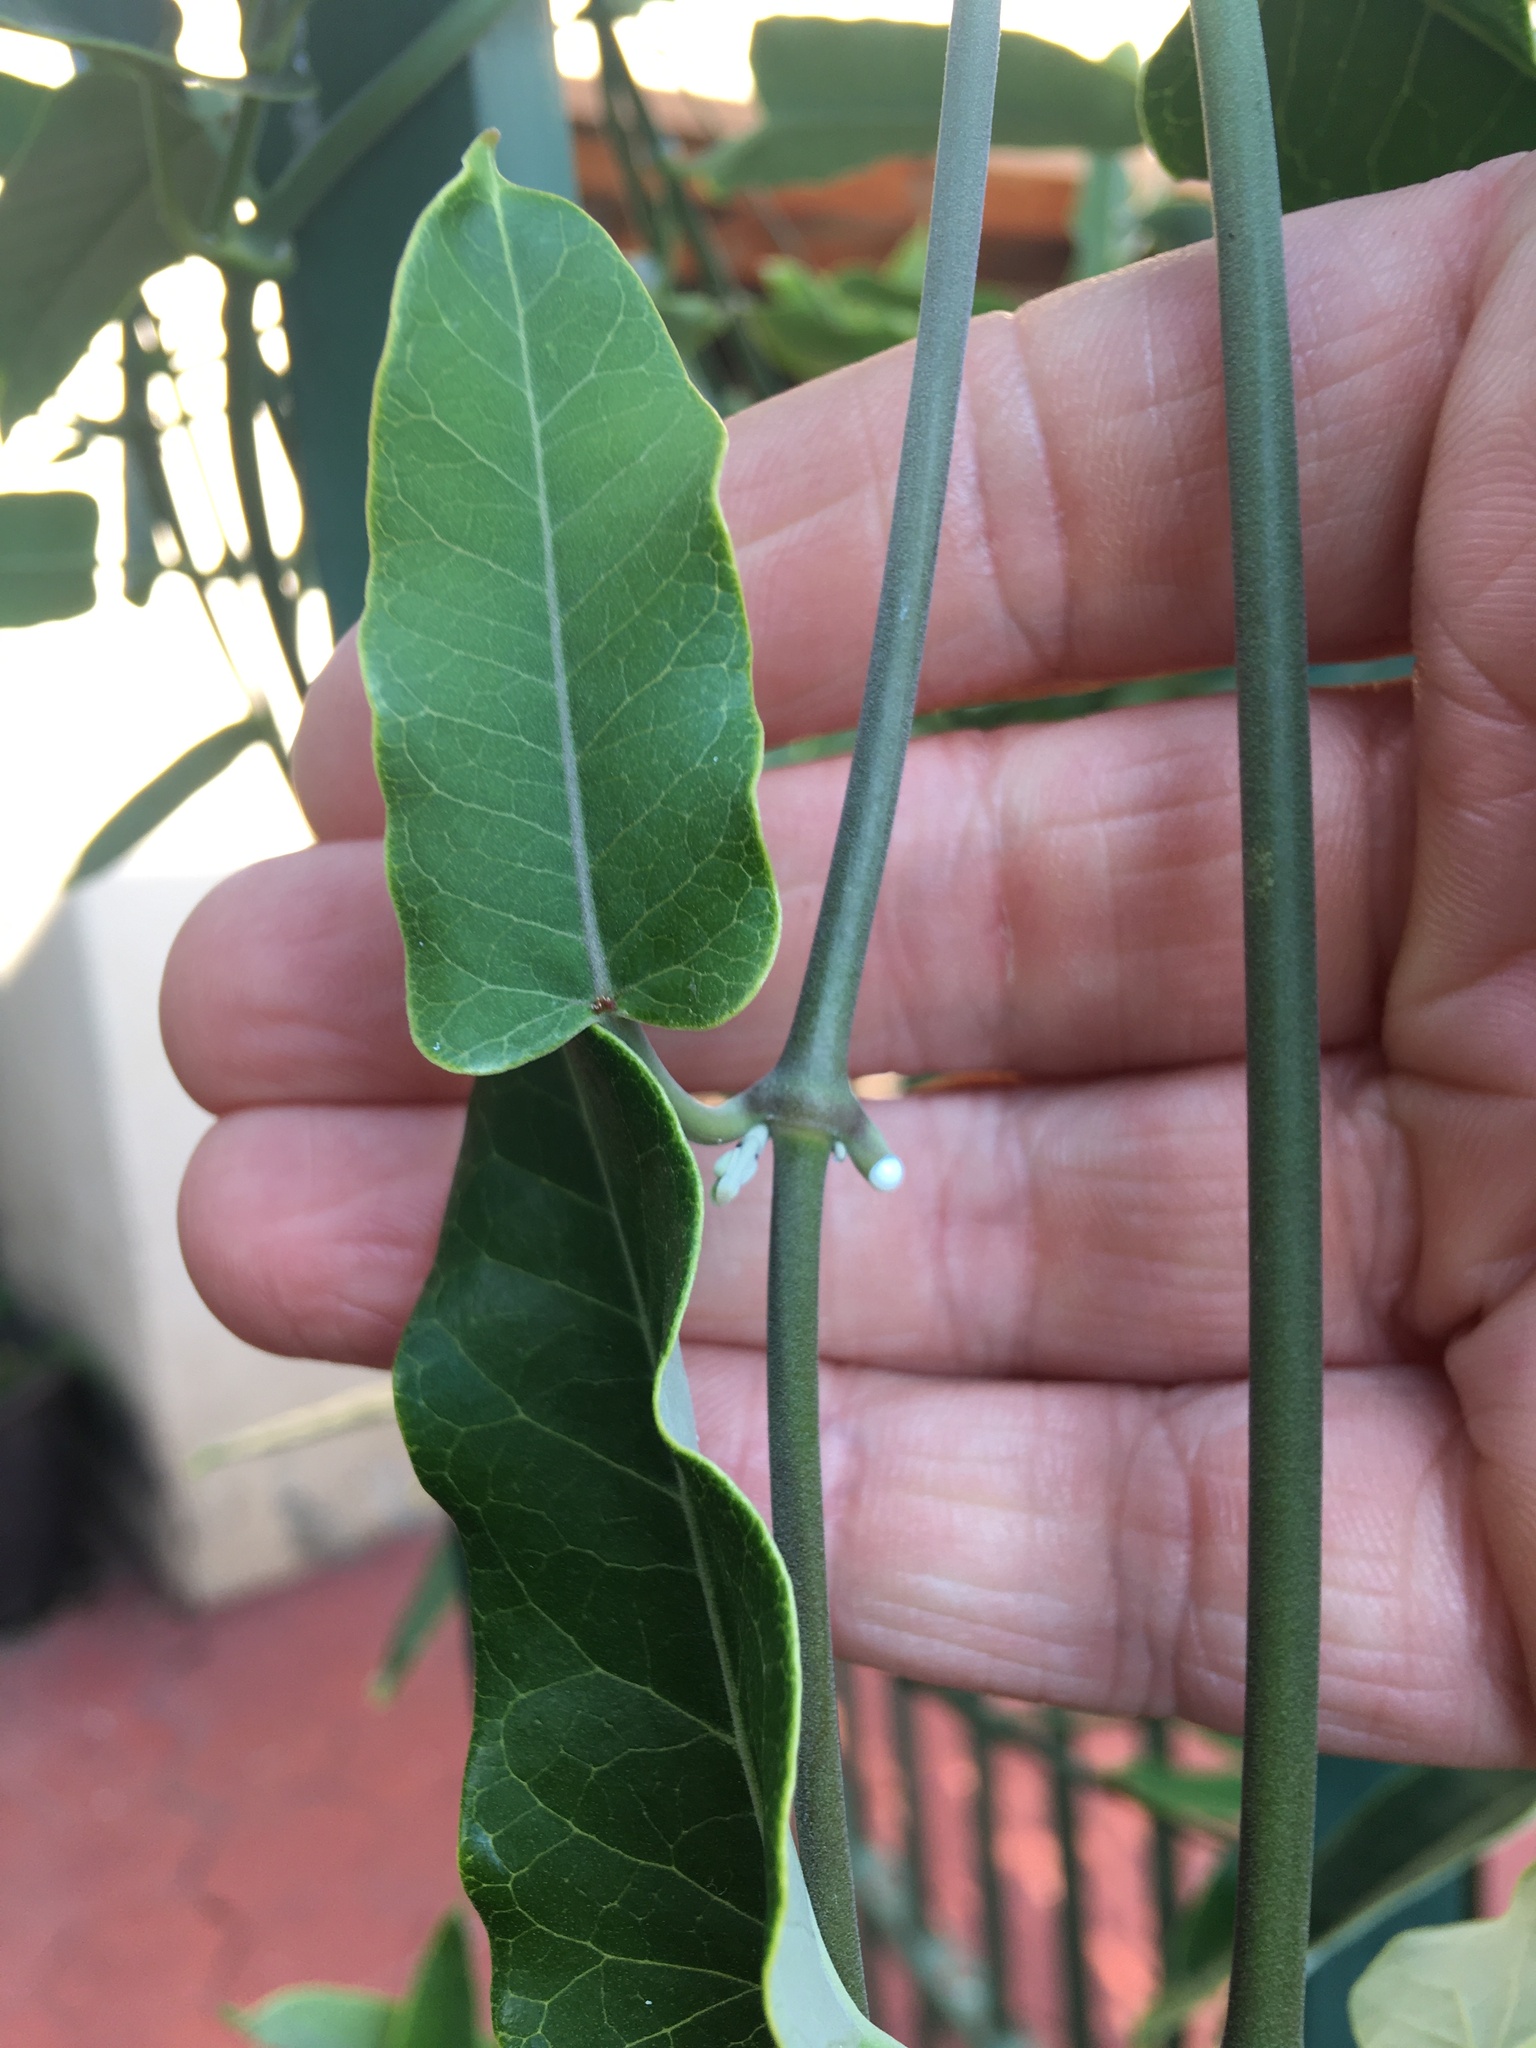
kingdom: Plantae
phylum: Tracheophyta
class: Magnoliopsida
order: Gentianales
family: Apocynaceae
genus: Araujia
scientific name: Araujia sericifera
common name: White bladderflower
